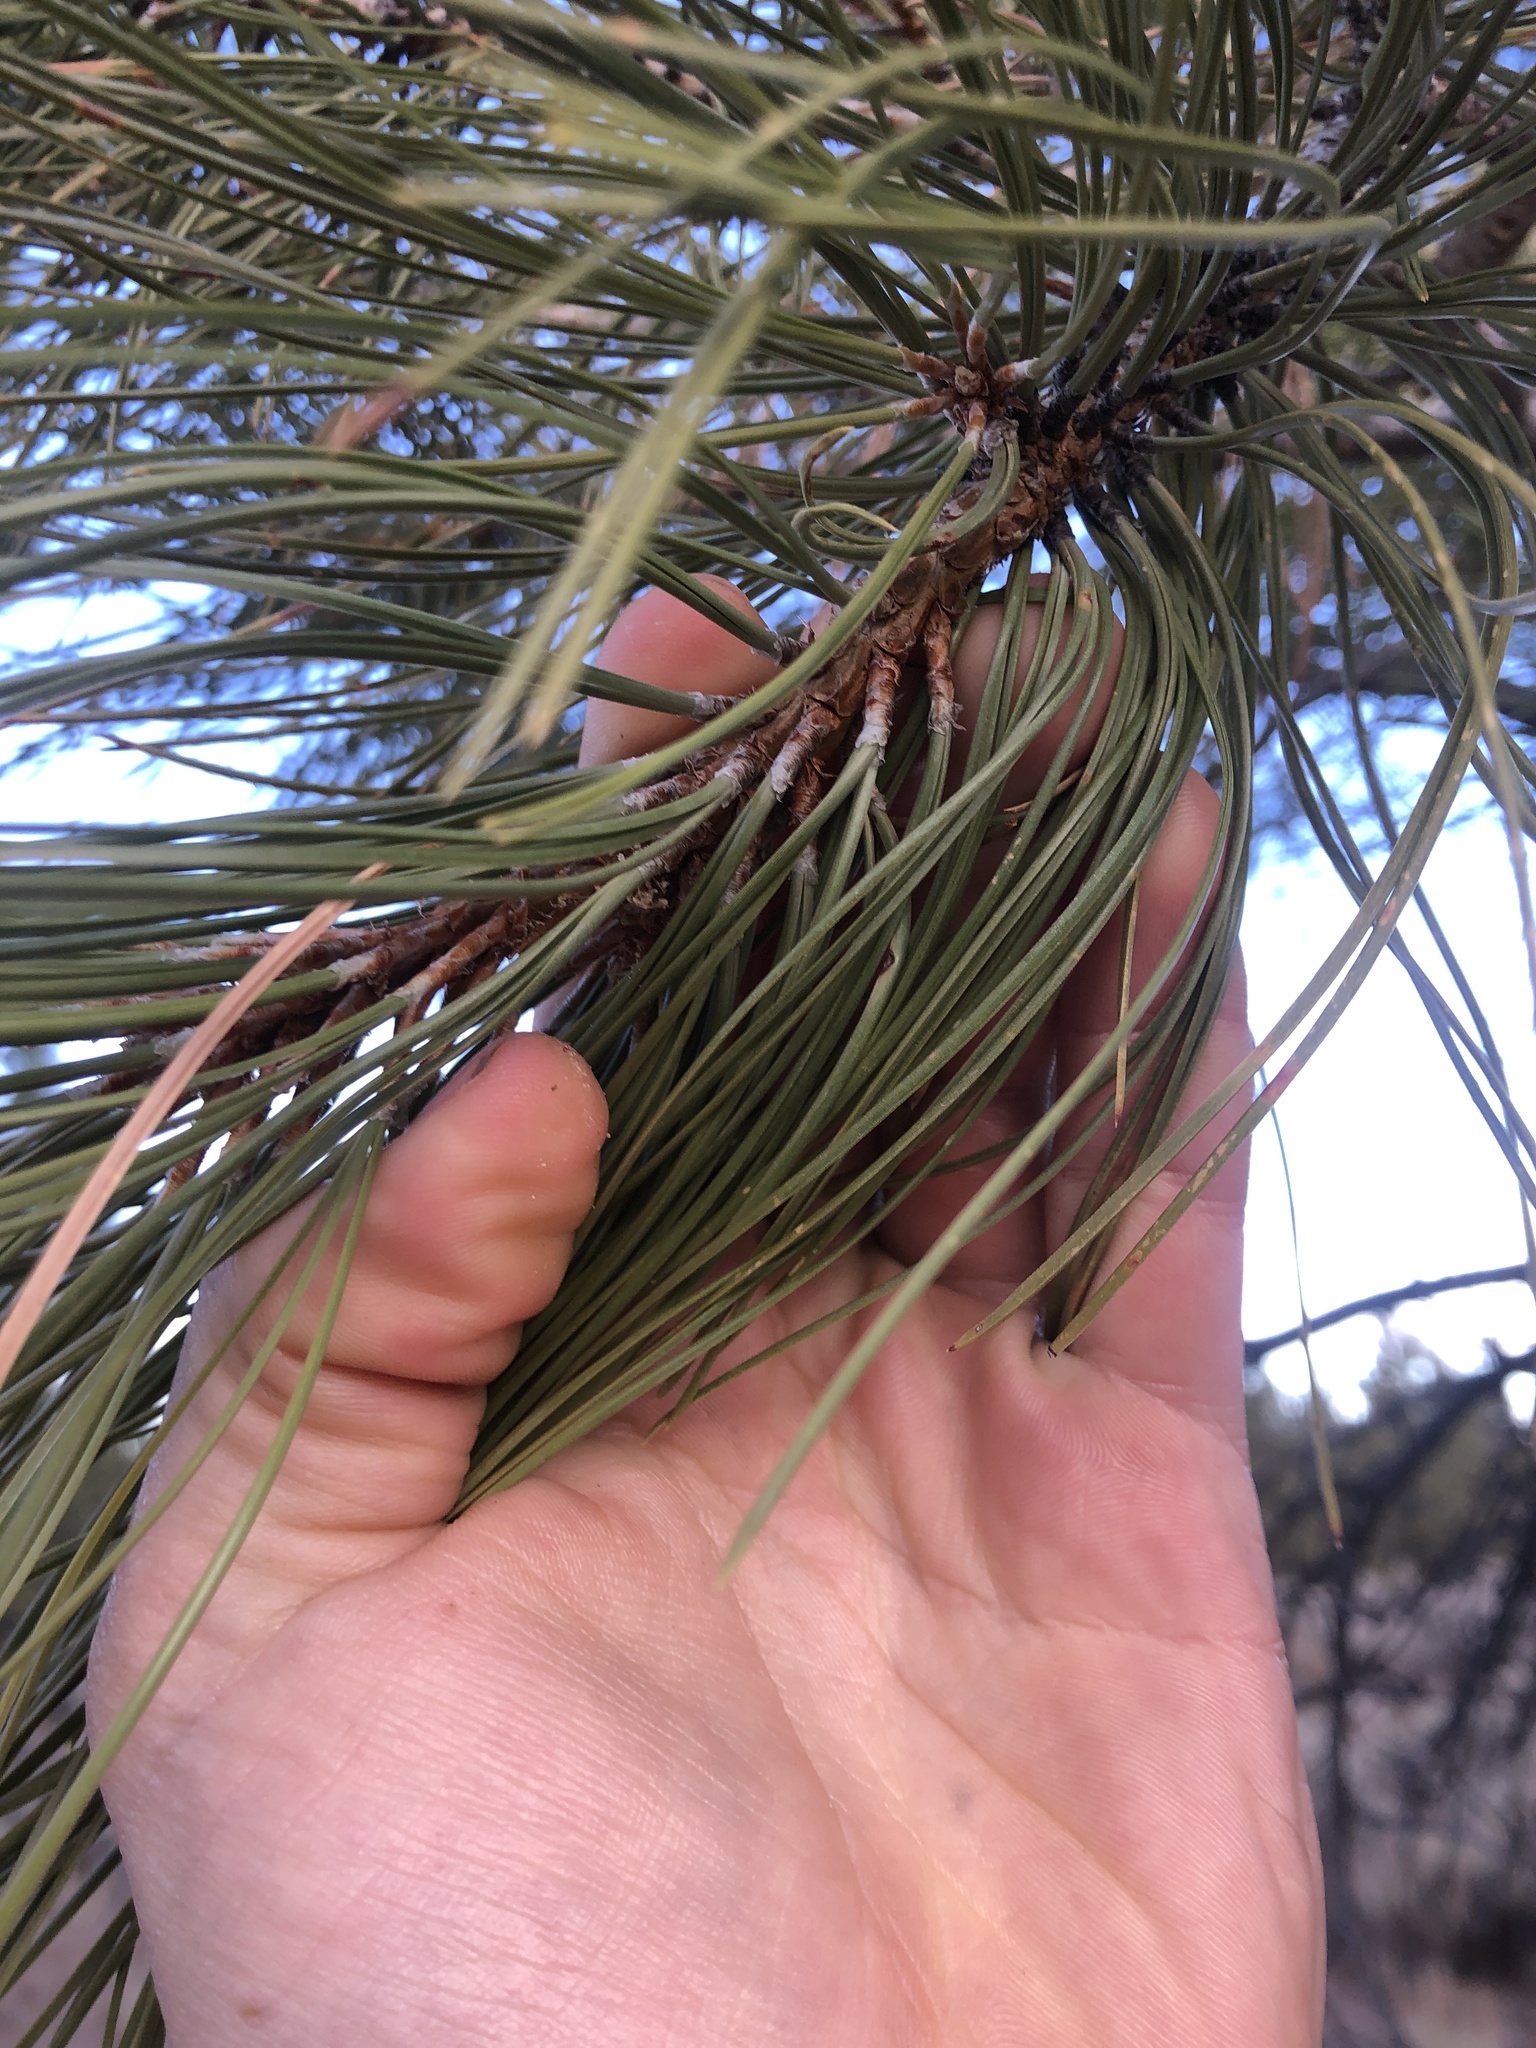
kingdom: Plantae
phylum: Tracheophyta
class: Pinopsida
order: Pinales
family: Pinaceae
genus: Pinus
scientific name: Pinus ponderosa
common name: Western yellow-pine
